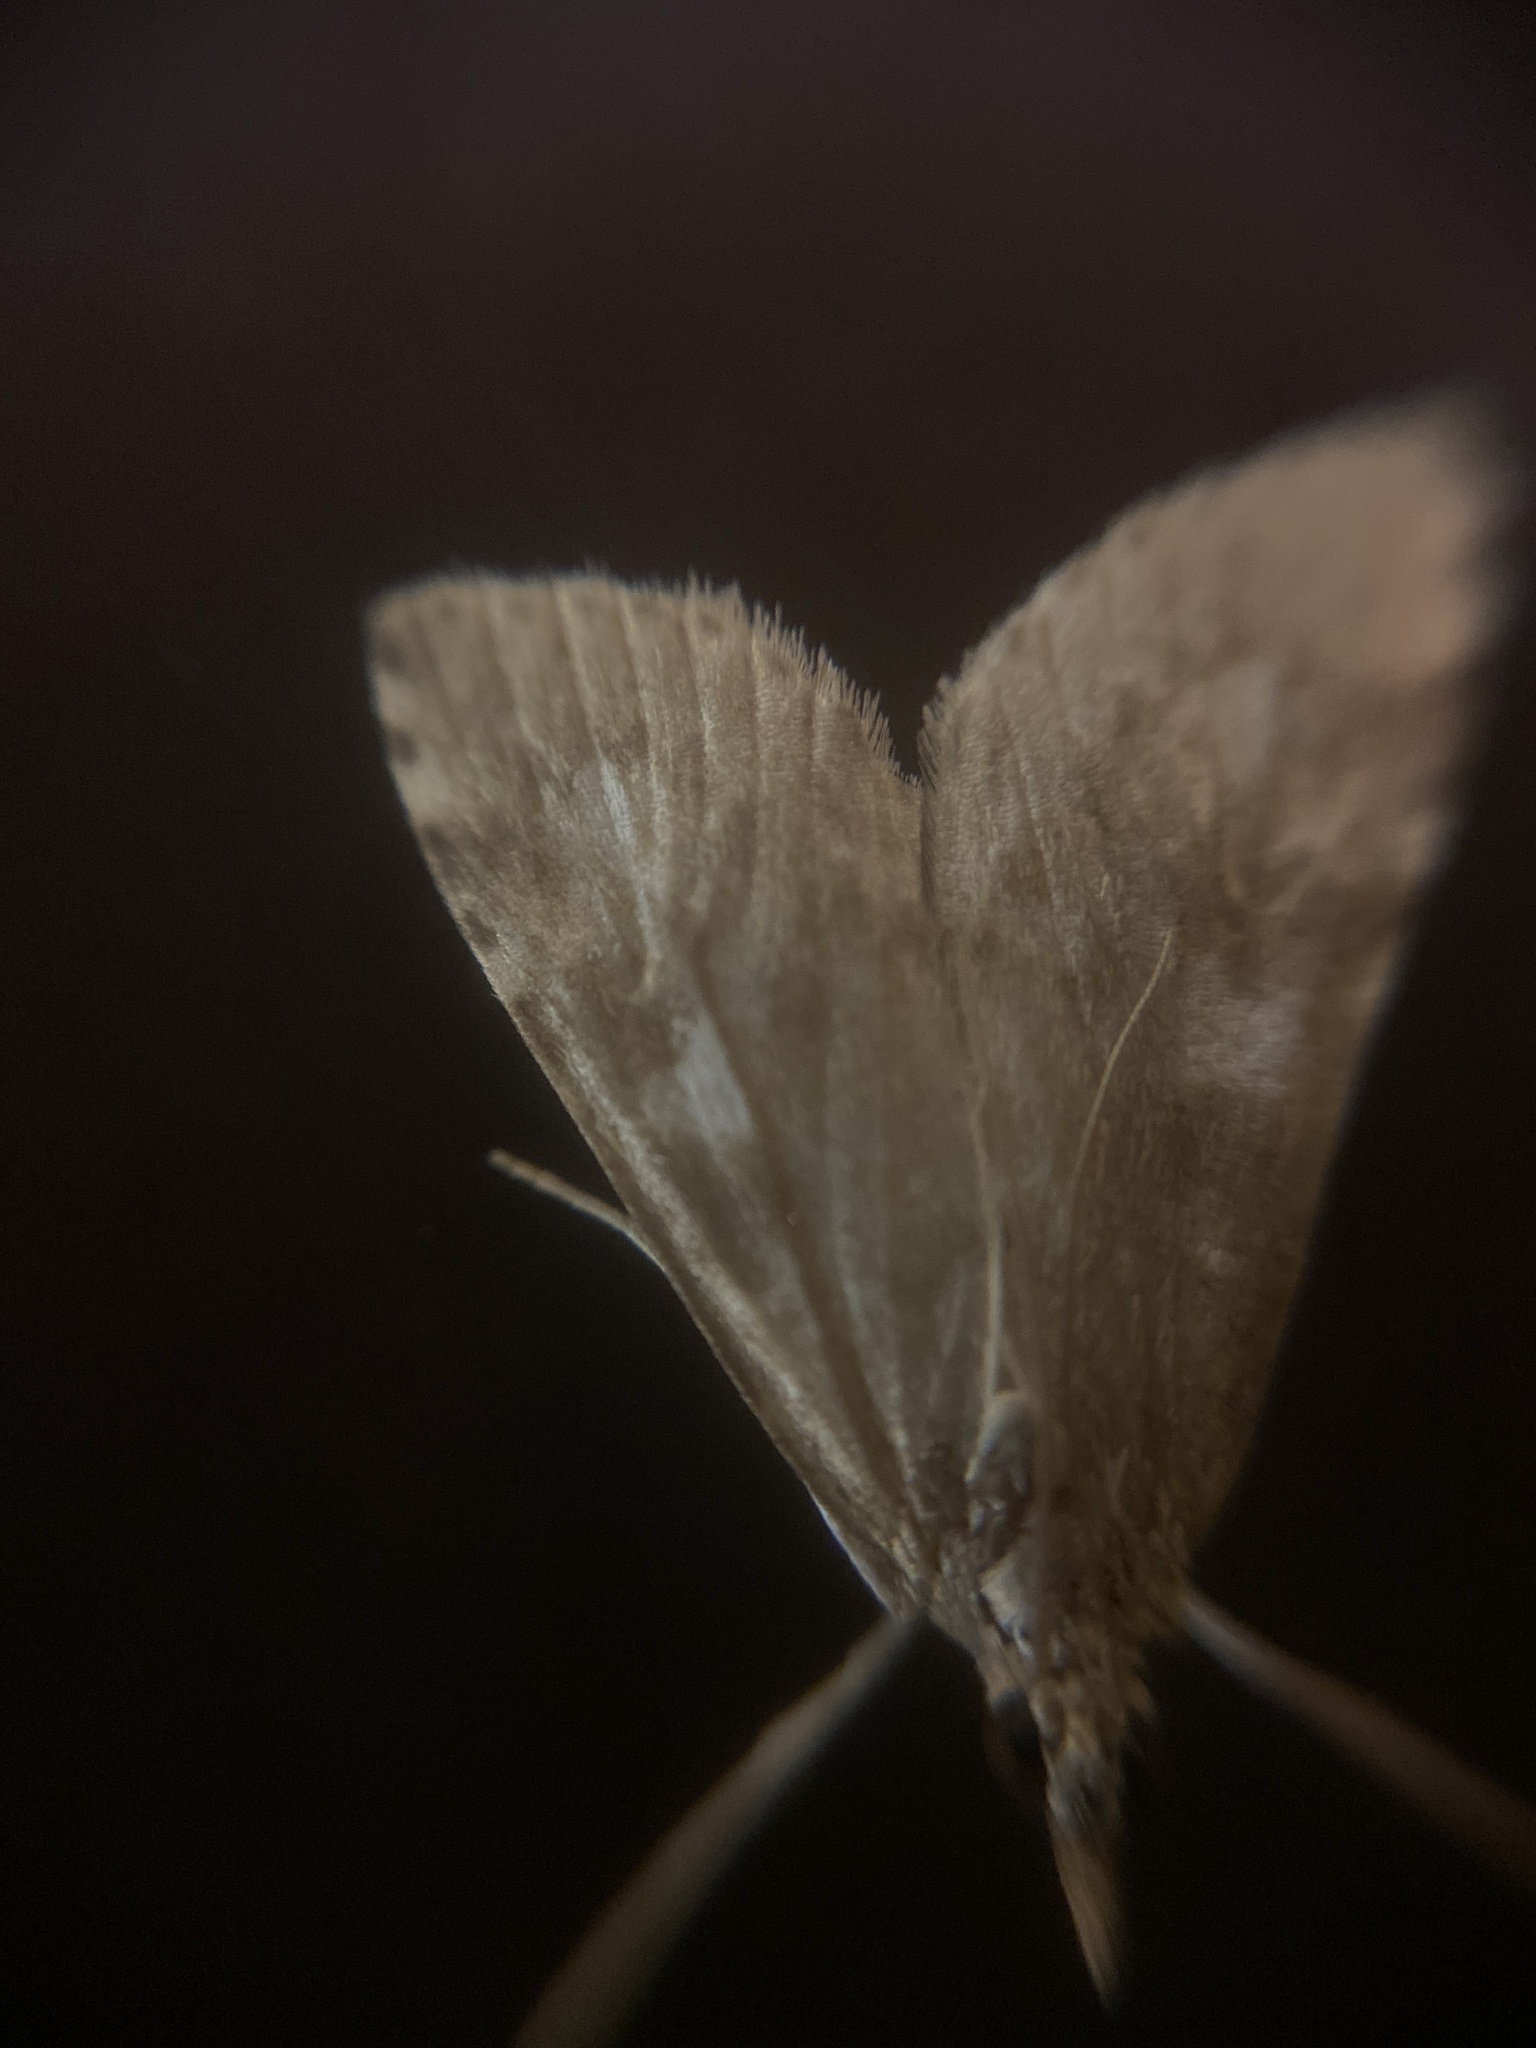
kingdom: Animalia
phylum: Arthropoda
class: Insecta
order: Lepidoptera
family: Crambidae
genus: Udea
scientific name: Udea olivalis
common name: Olive pearl
